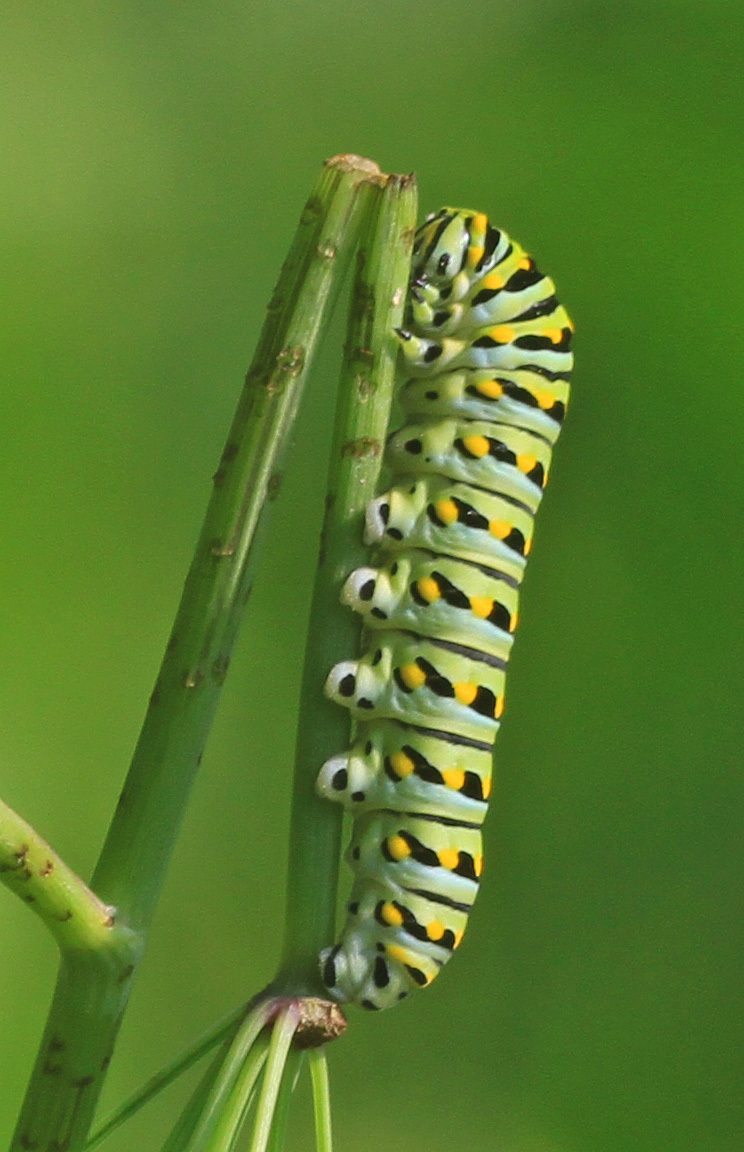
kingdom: Animalia
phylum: Arthropoda
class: Insecta
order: Lepidoptera
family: Papilionidae
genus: Papilio
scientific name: Papilio polyxenes
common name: Black swallowtail
